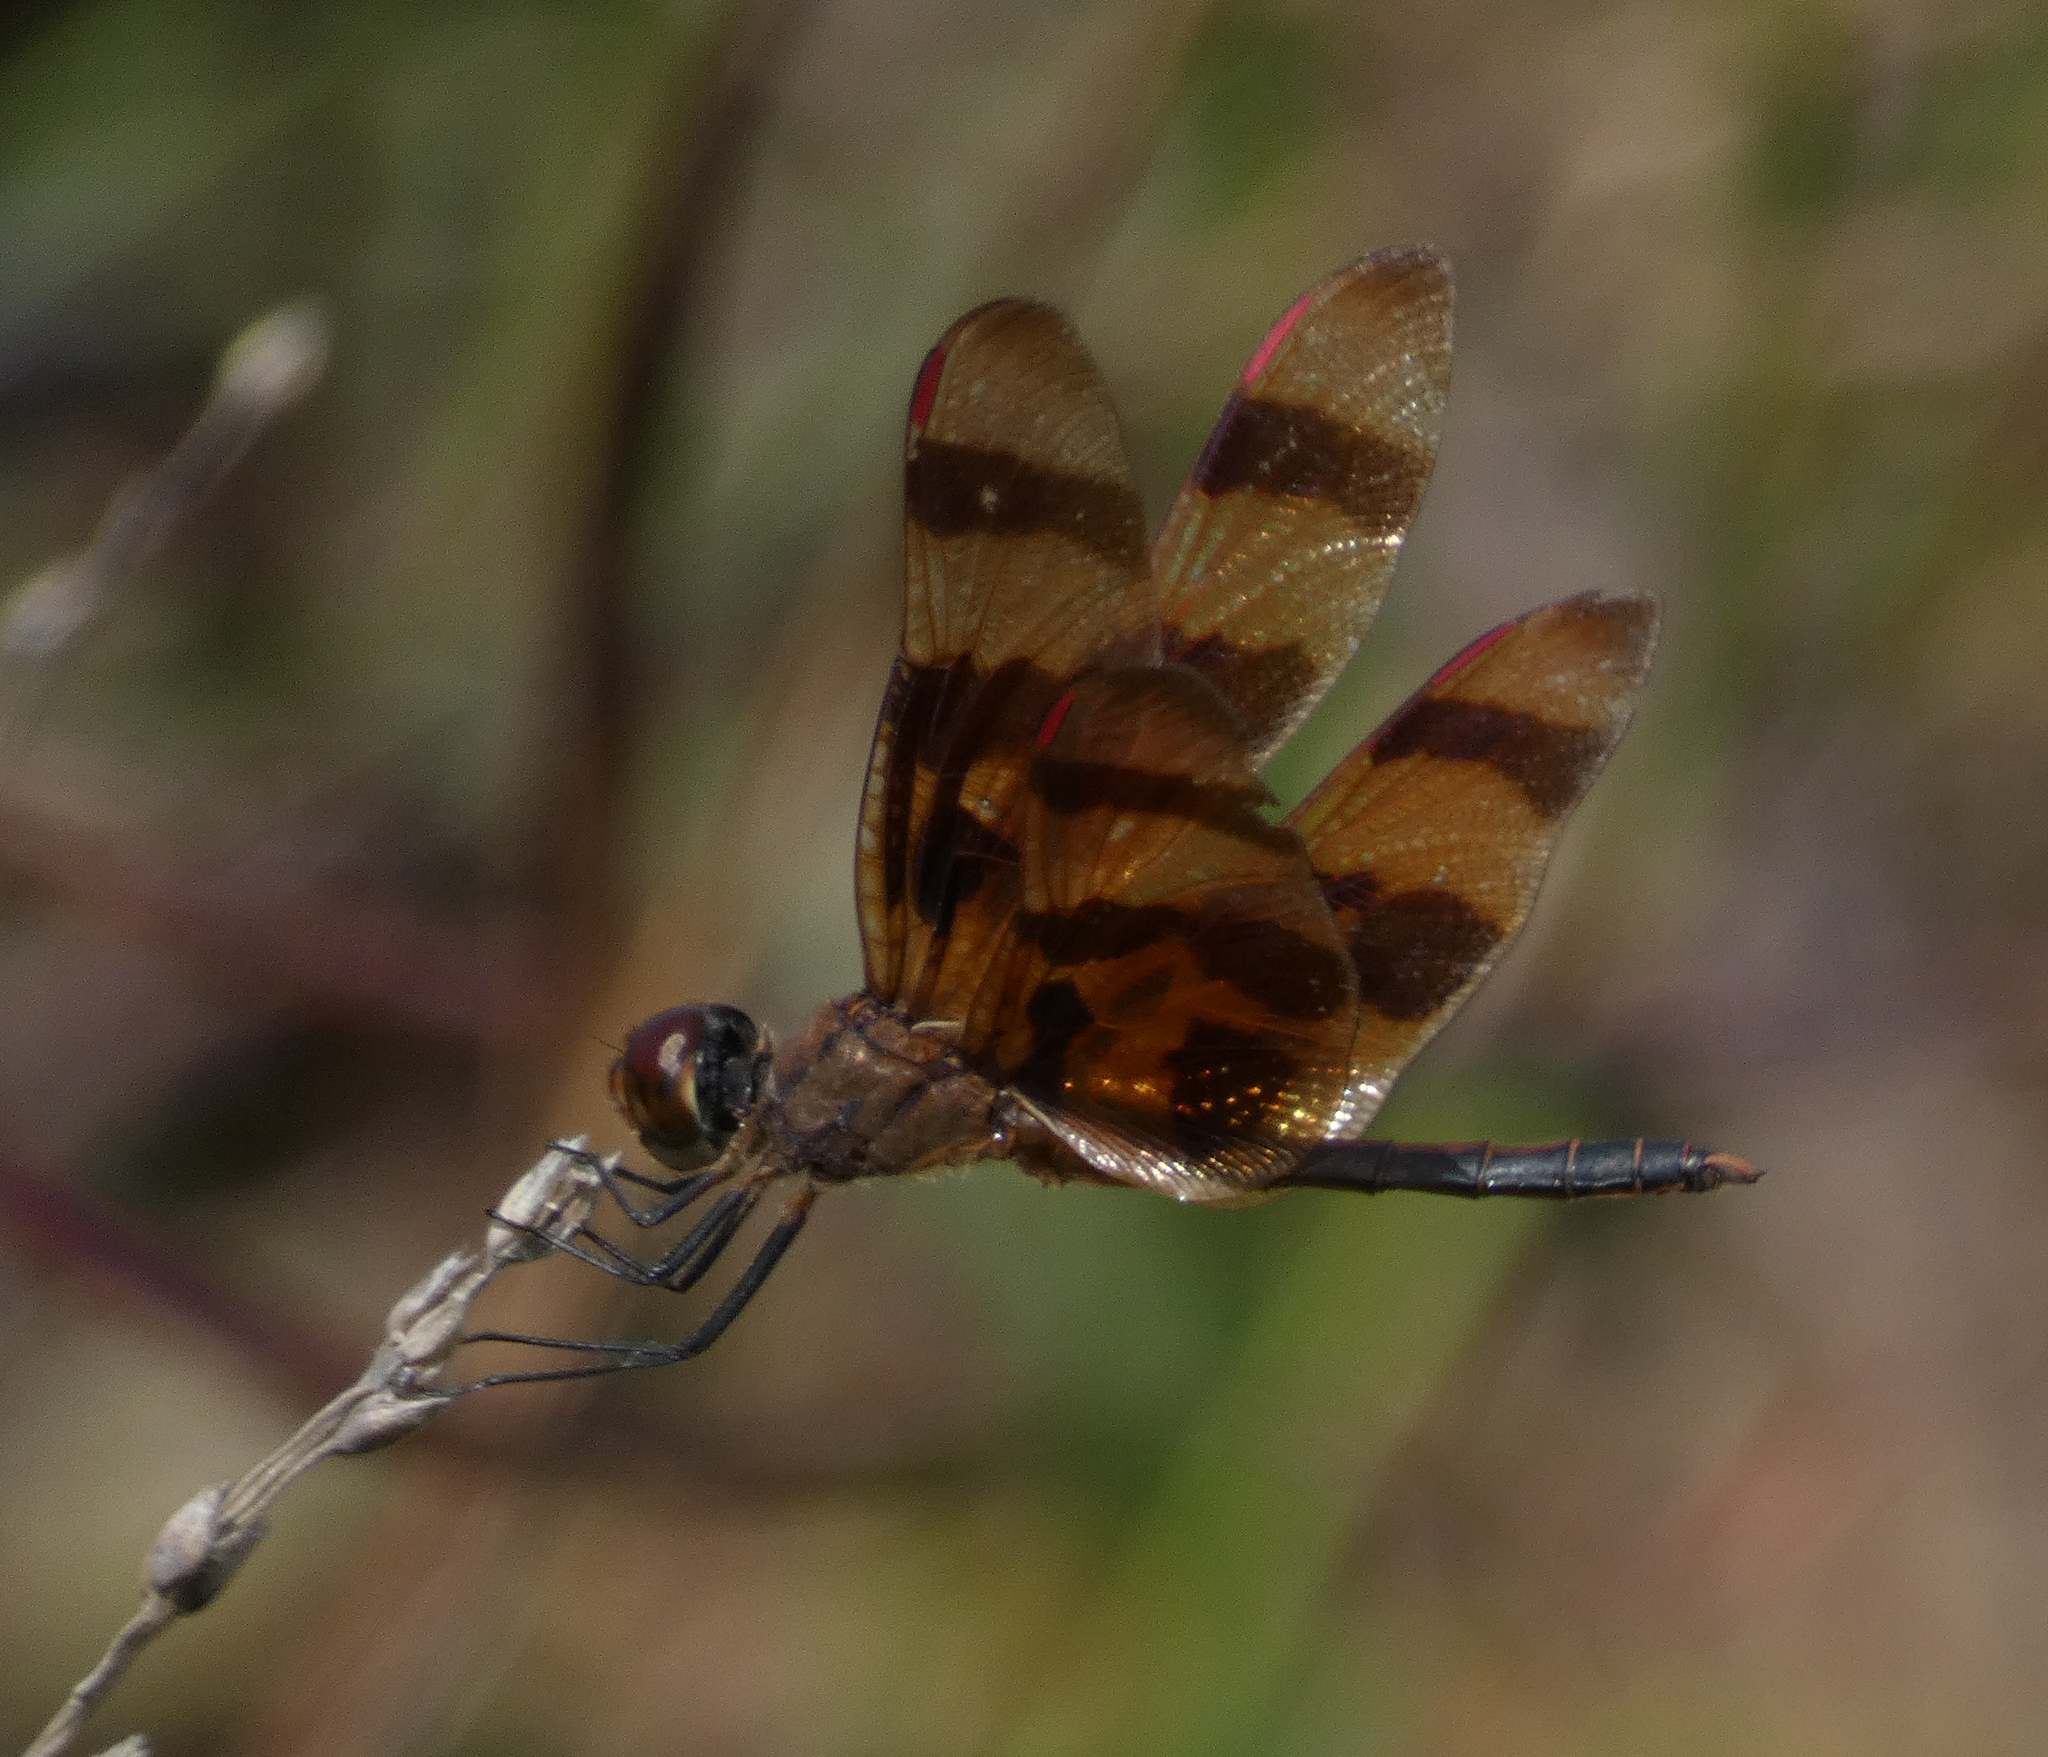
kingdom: Animalia
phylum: Arthropoda
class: Insecta
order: Odonata
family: Libellulidae
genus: Celithemis
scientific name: Celithemis eponina
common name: Halloween pennant
